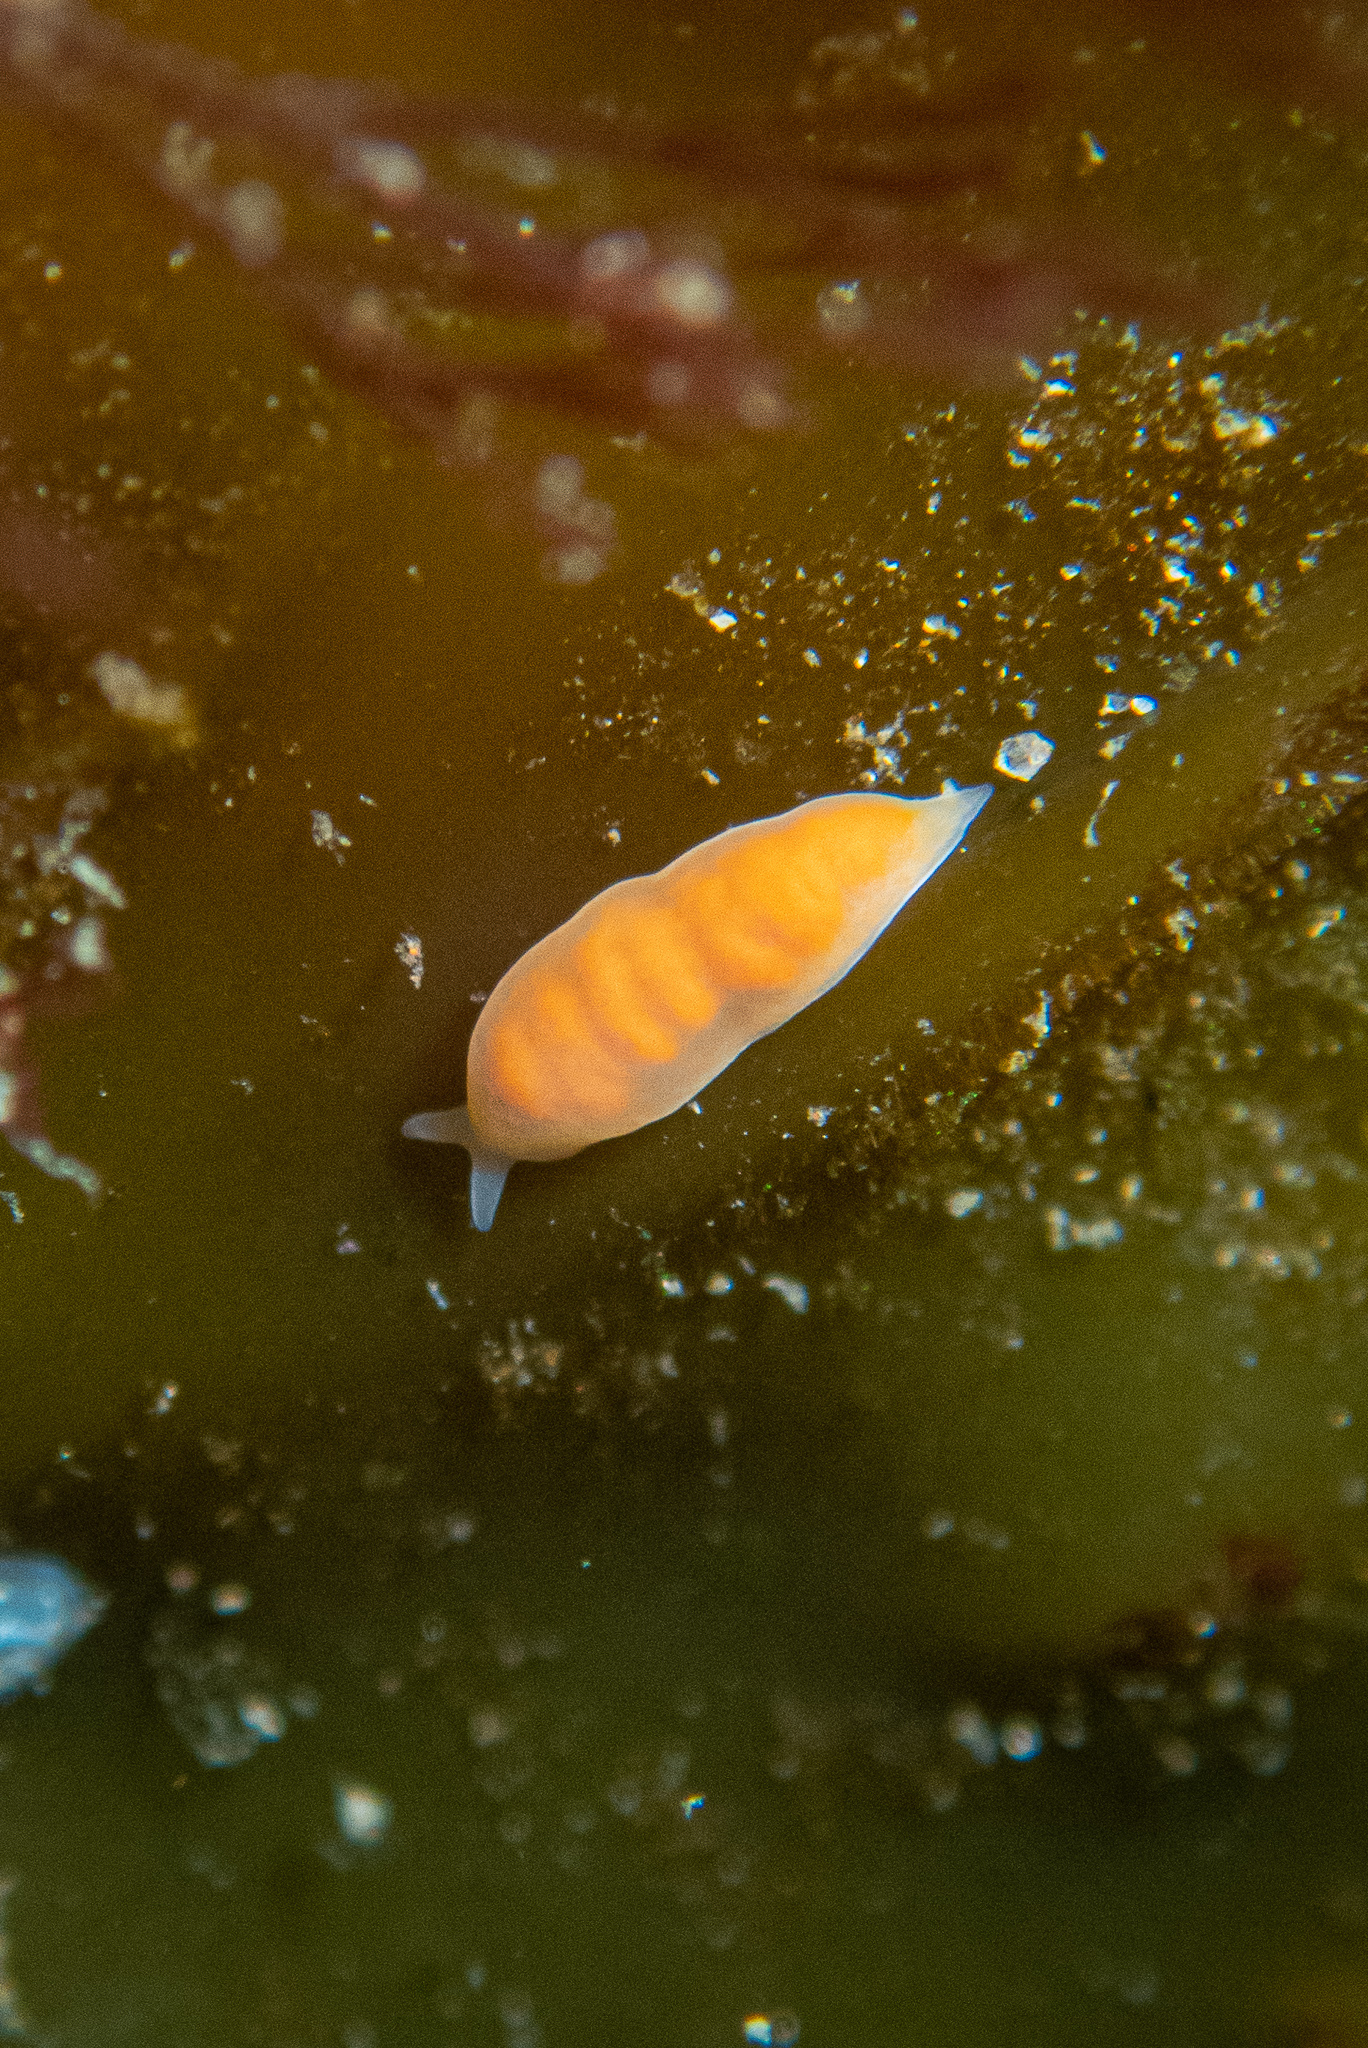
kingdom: Animalia
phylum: Platyhelminthes
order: Prolecithophora
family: Plagiostomidae
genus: Vorticeros
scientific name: Vorticeros praedatorium
